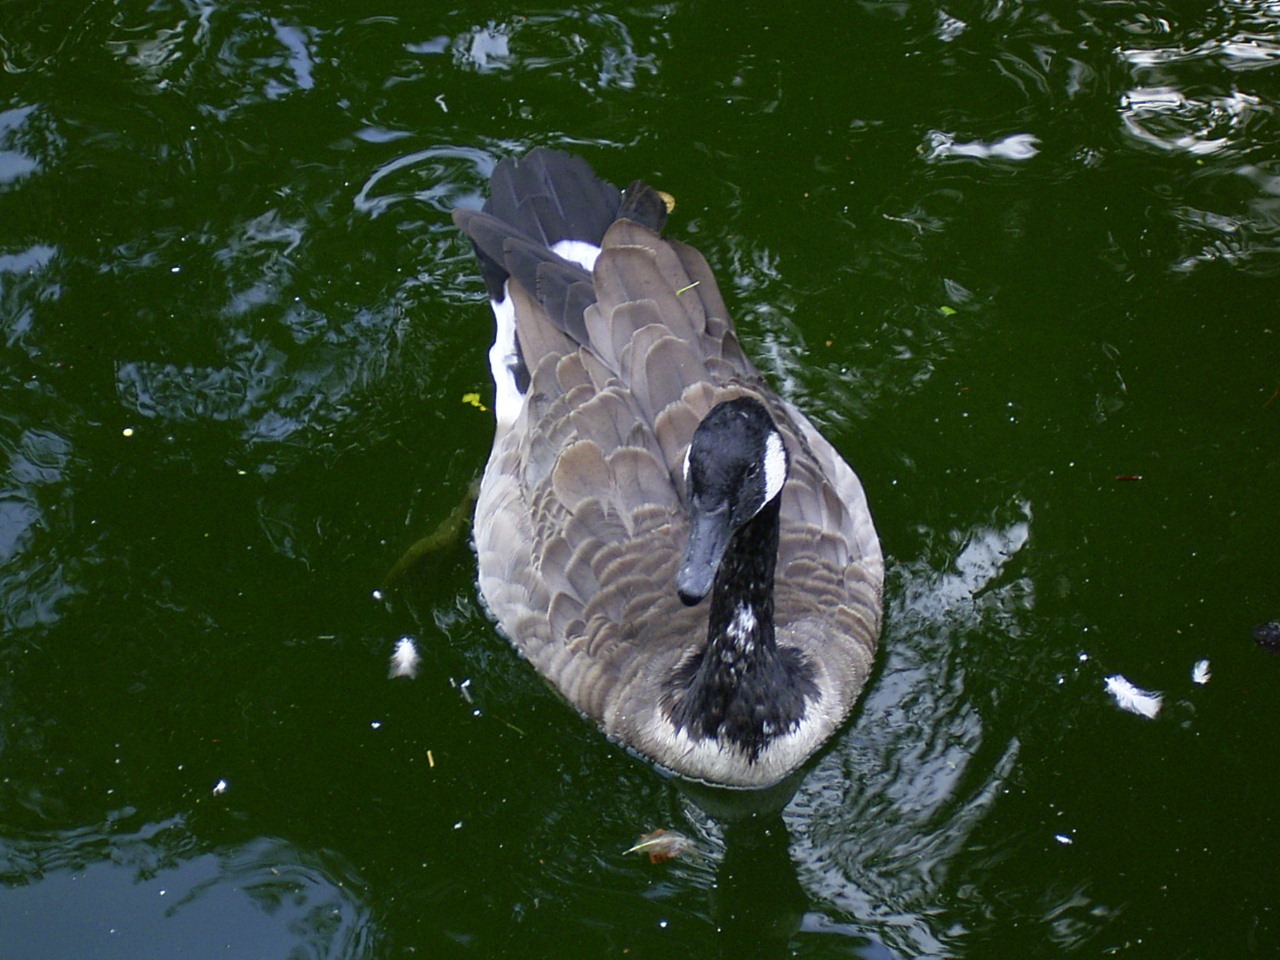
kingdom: Animalia
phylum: Chordata
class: Aves
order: Anseriformes
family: Anatidae
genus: Branta
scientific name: Branta canadensis
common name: Canada goose
